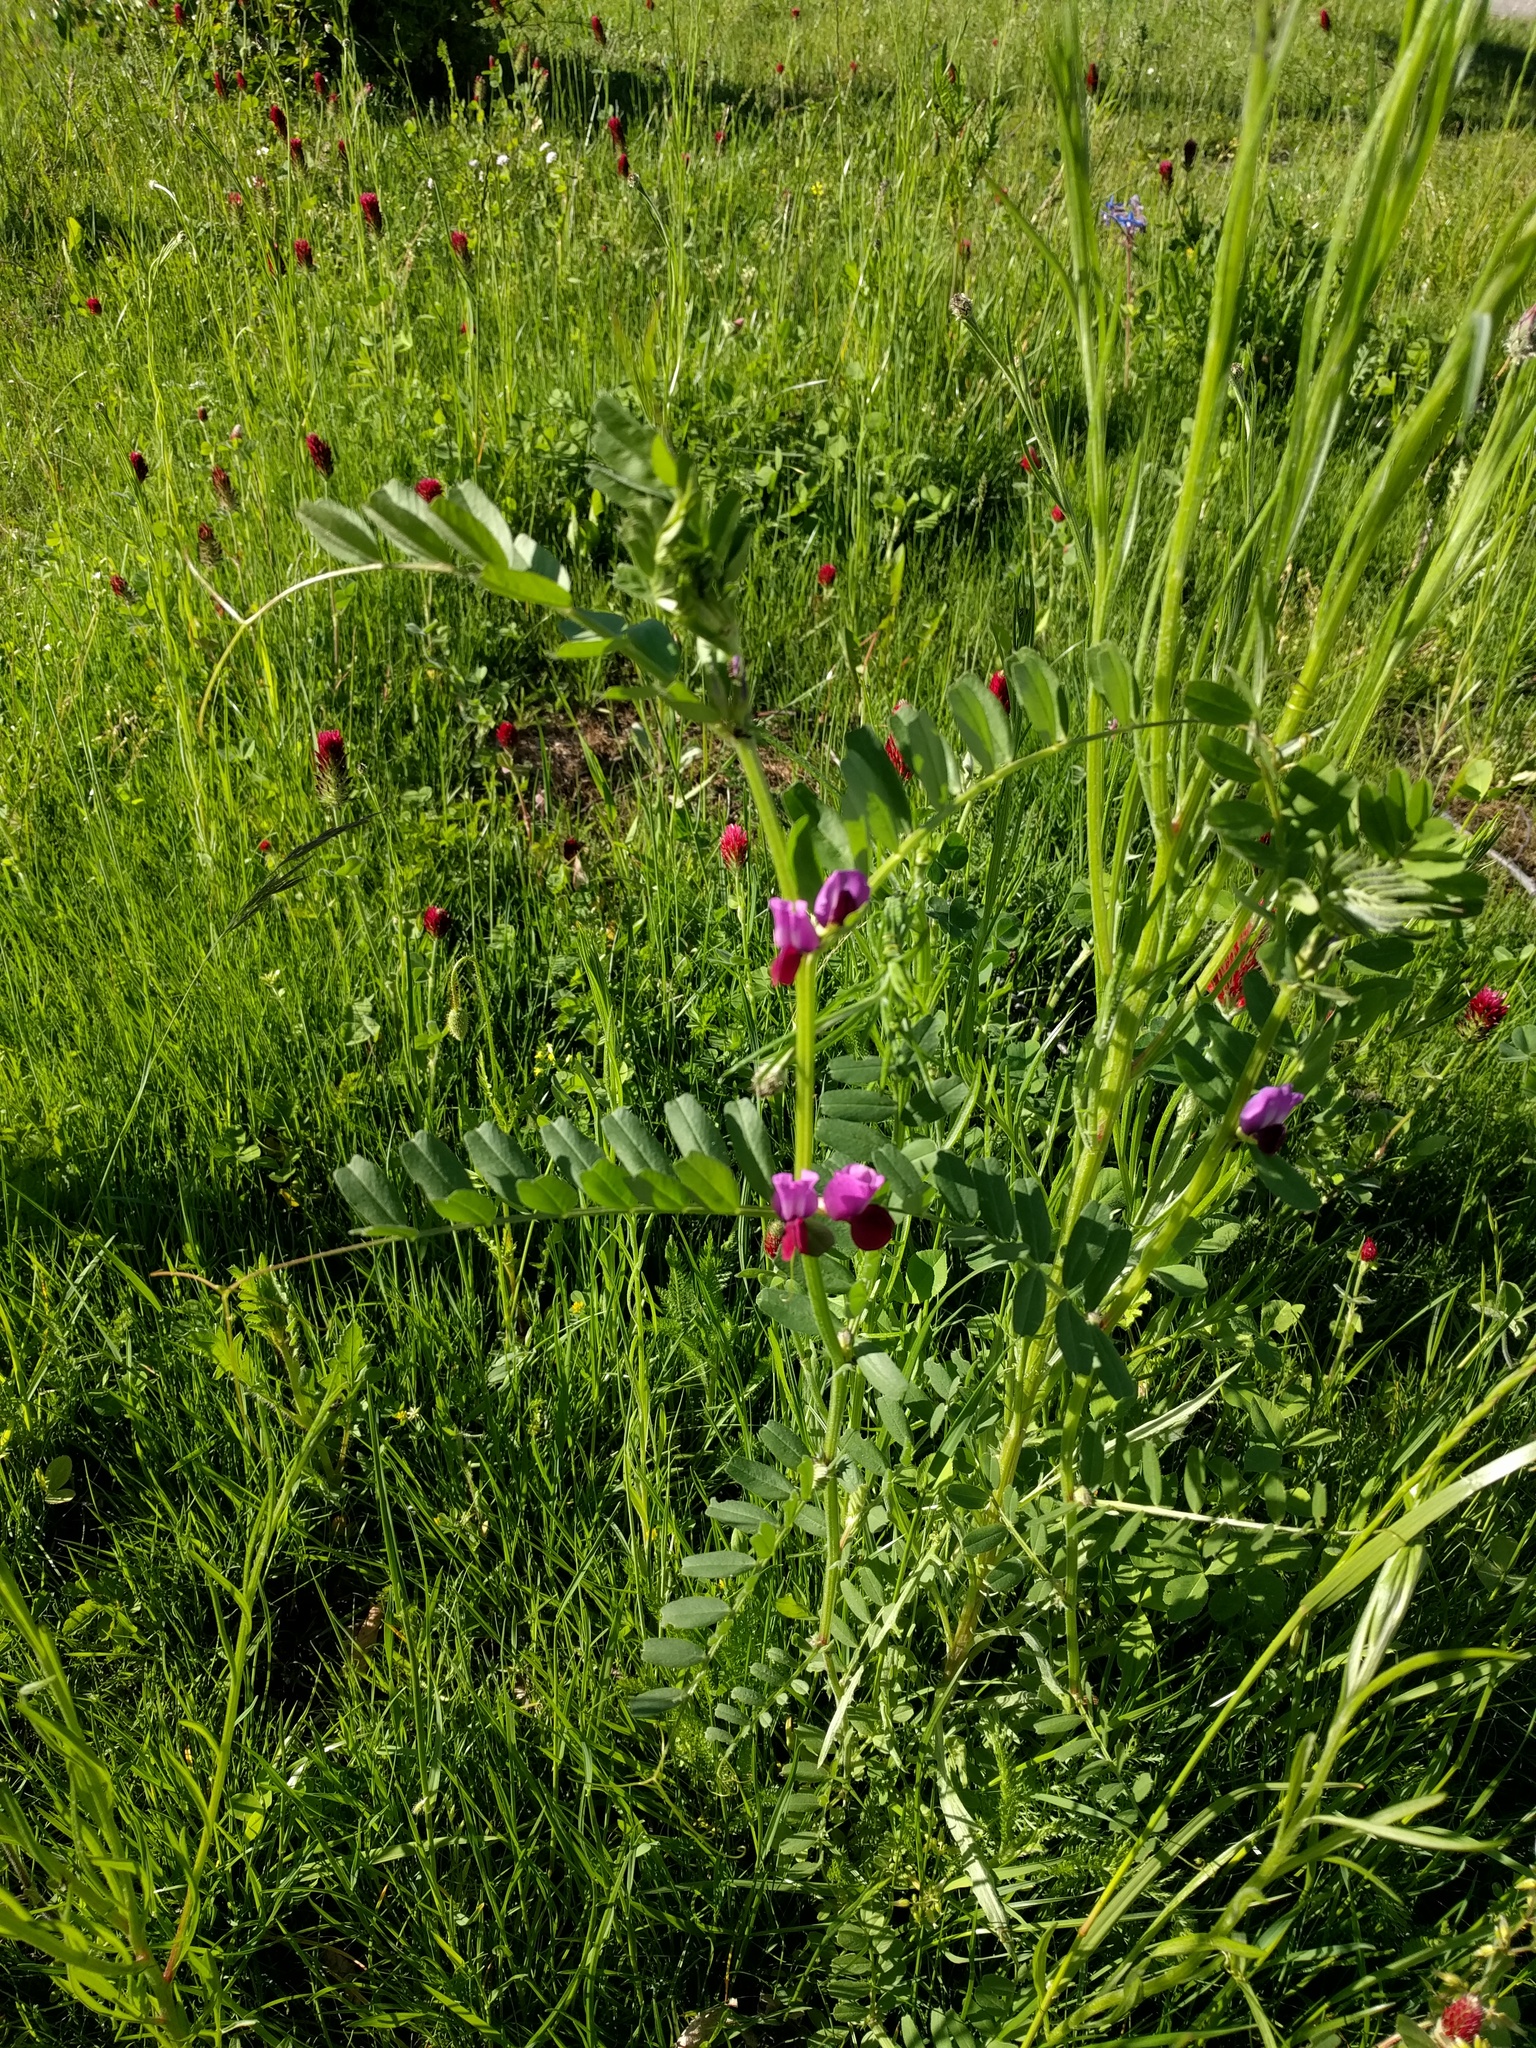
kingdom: Plantae
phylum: Tracheophyta
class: Magnoliopsida
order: Fabales
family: Fabaceae
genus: Vicia
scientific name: Vicia sativa
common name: Garden vetch
